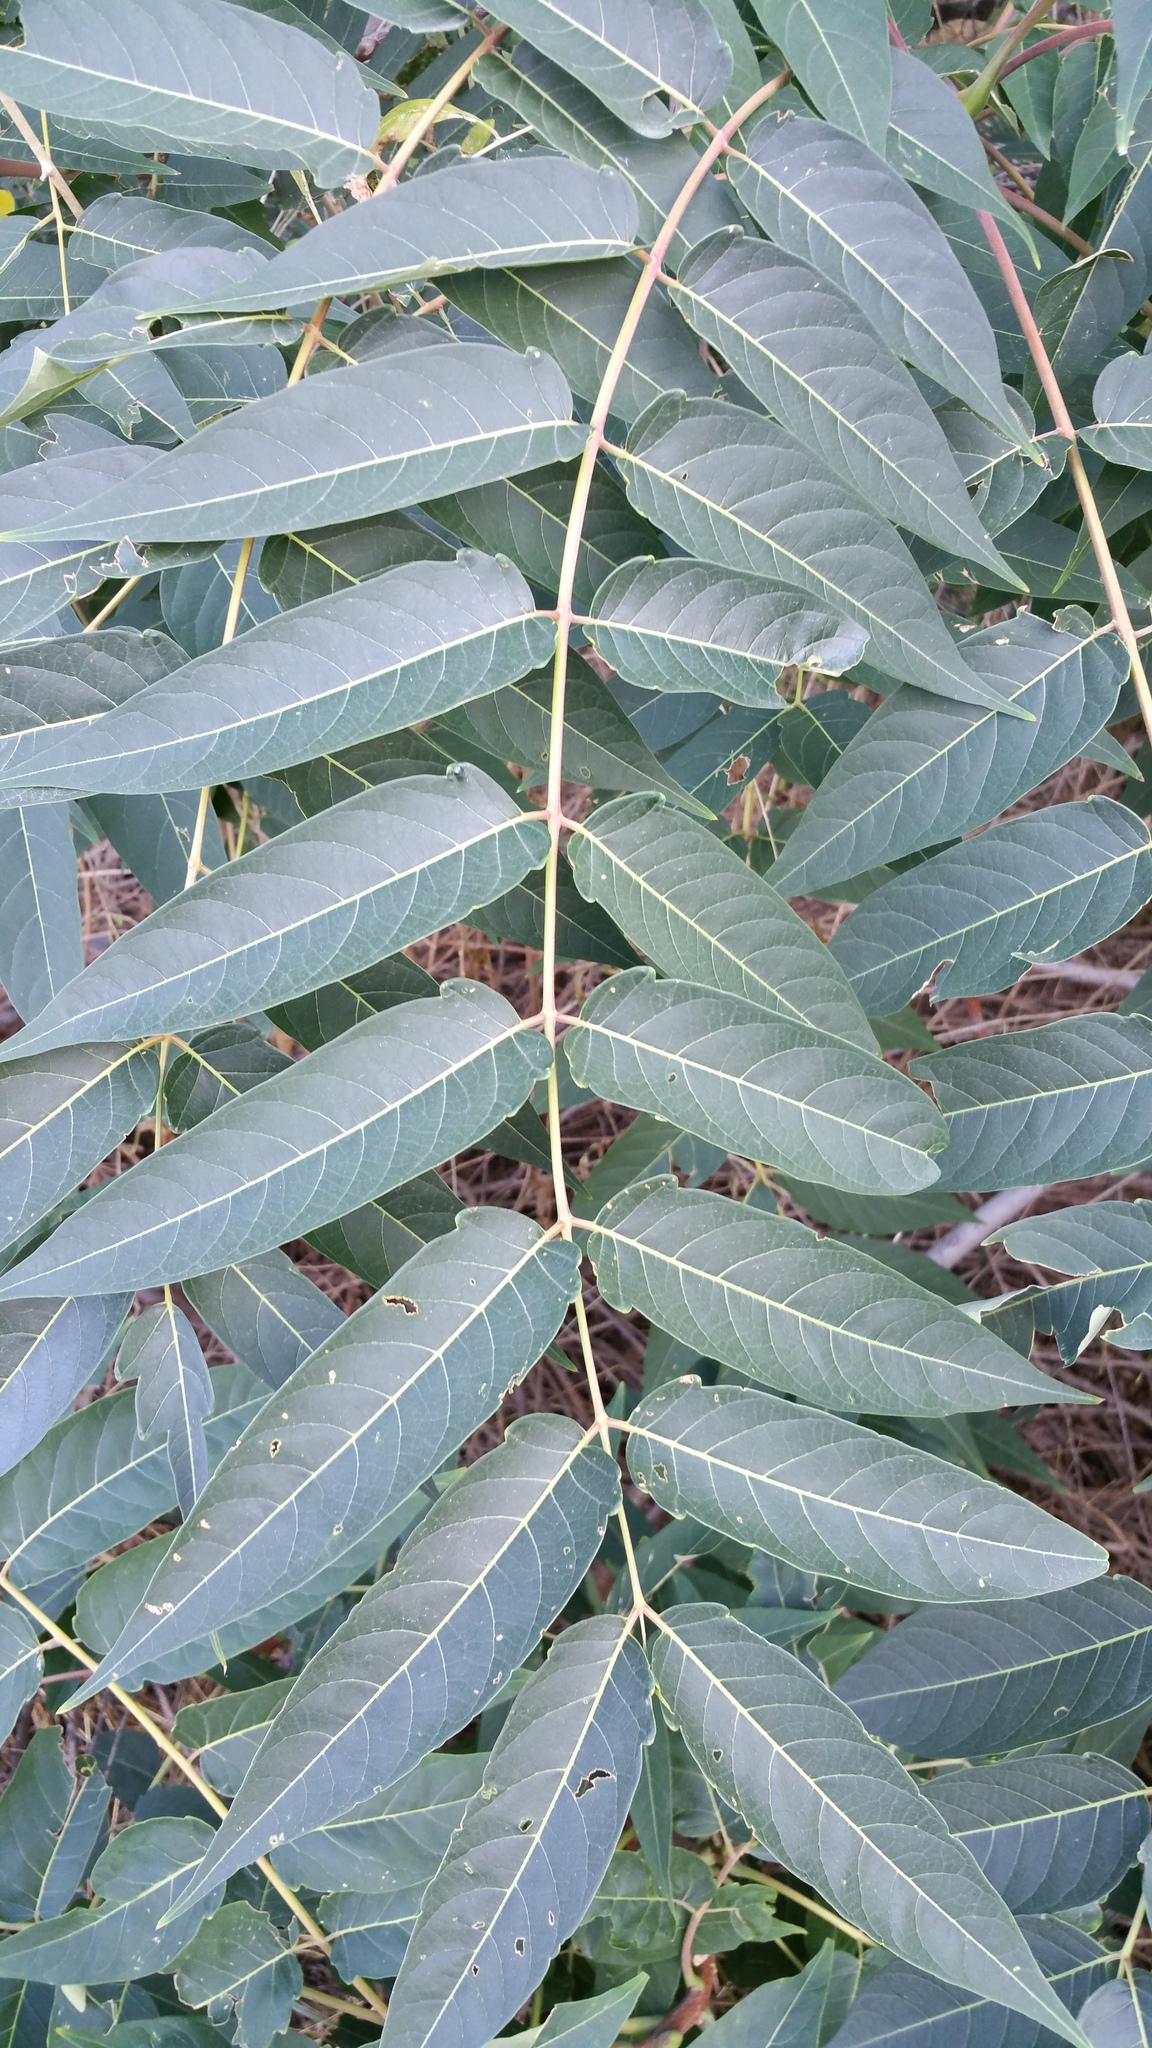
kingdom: Plantae
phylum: Tracheophyta
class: Magnoliopsida
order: Sapindales
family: Simaroubaceae
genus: Ailanthus
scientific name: Ailanthus altissima
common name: Tree-of-heaven
